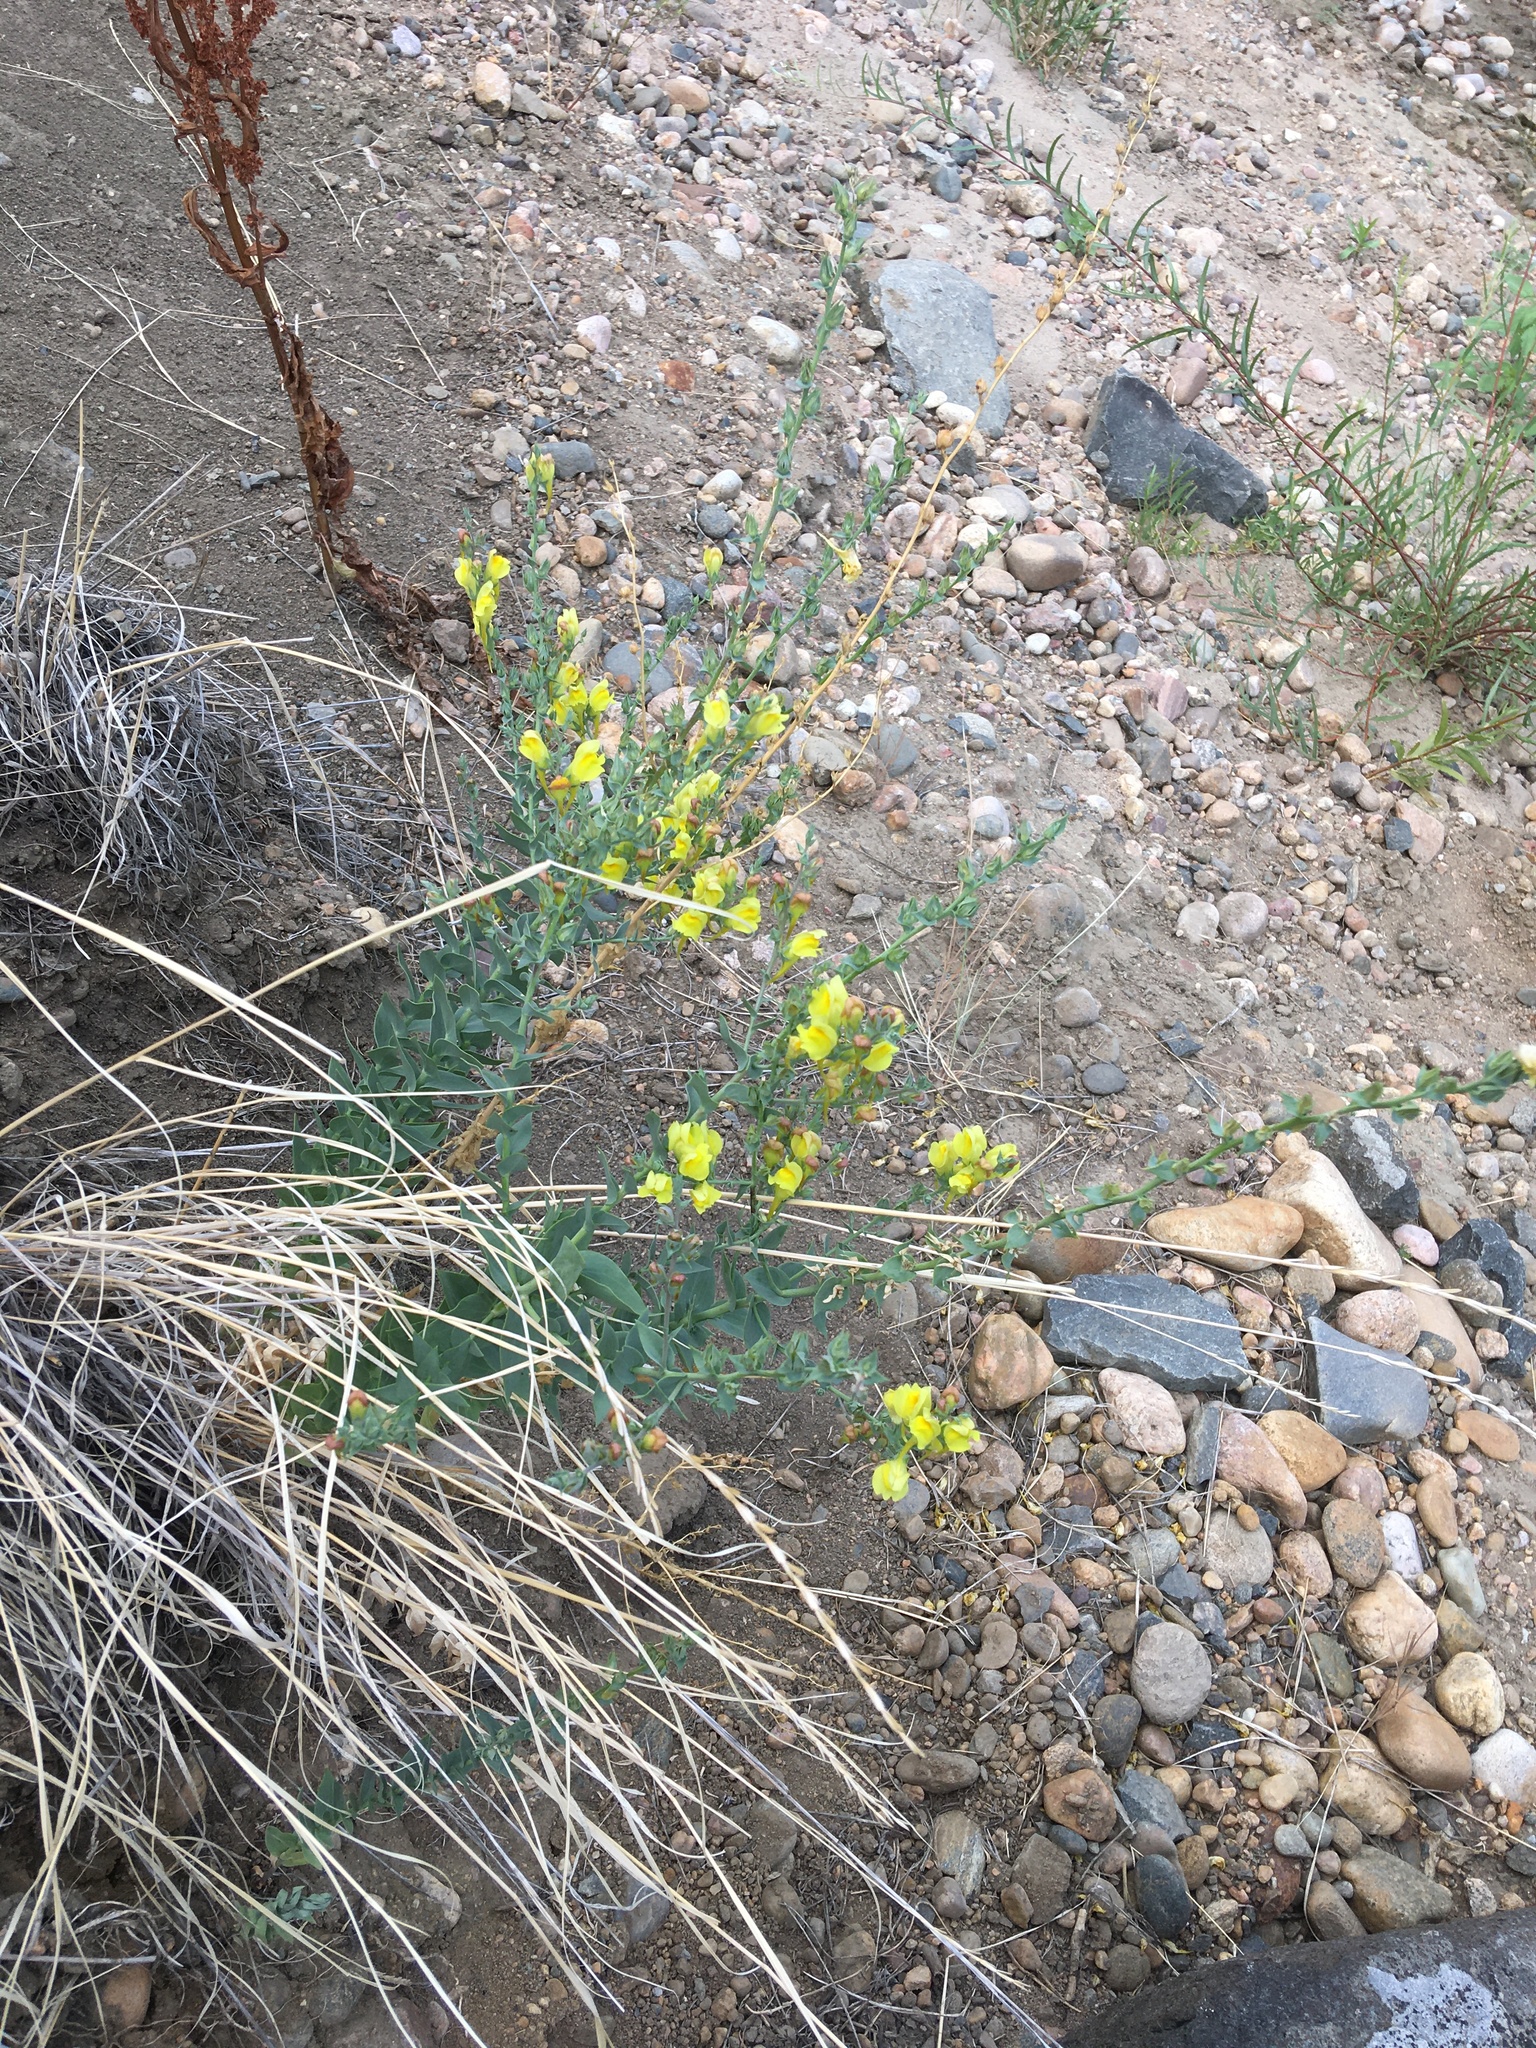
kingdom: Plantae
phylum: Tracheophyta
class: Magnoliopsida
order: Lamiales
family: Plantaginaceae
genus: Linaria
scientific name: Linaria dalmatica
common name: Dalmatian toadflax
